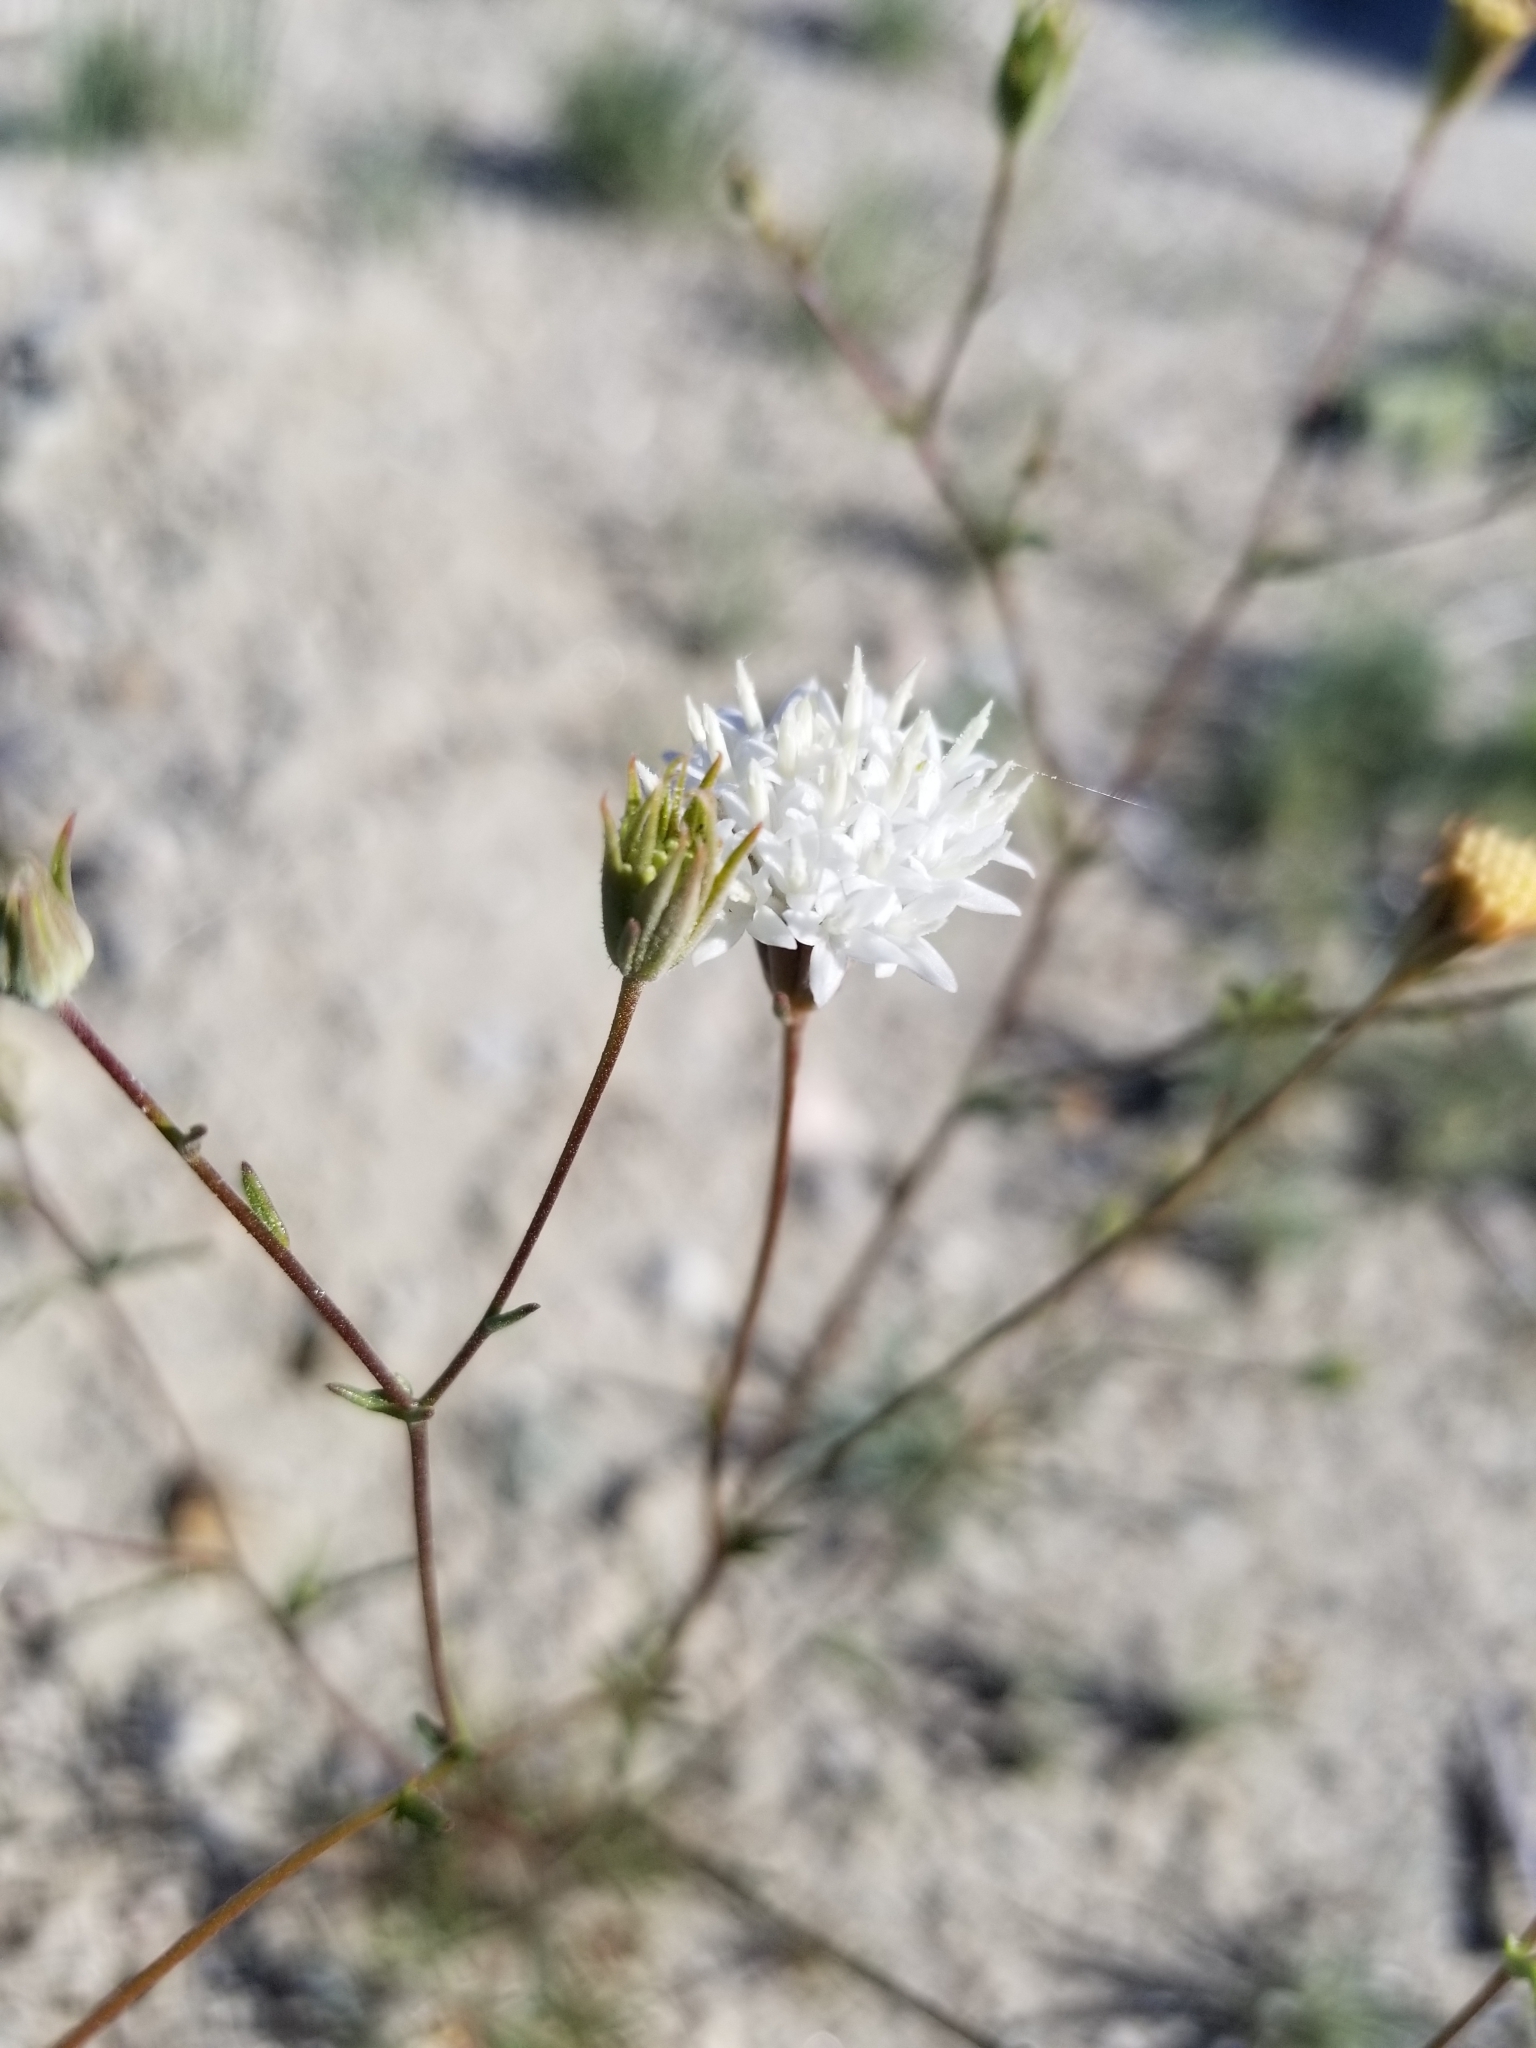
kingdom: Plantae
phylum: Tracheophyta
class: Magnoliopsida
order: Asterales
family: Asteraceae
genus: Chaenactis
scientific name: Chaenactis stevioides
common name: Desert pincushion
